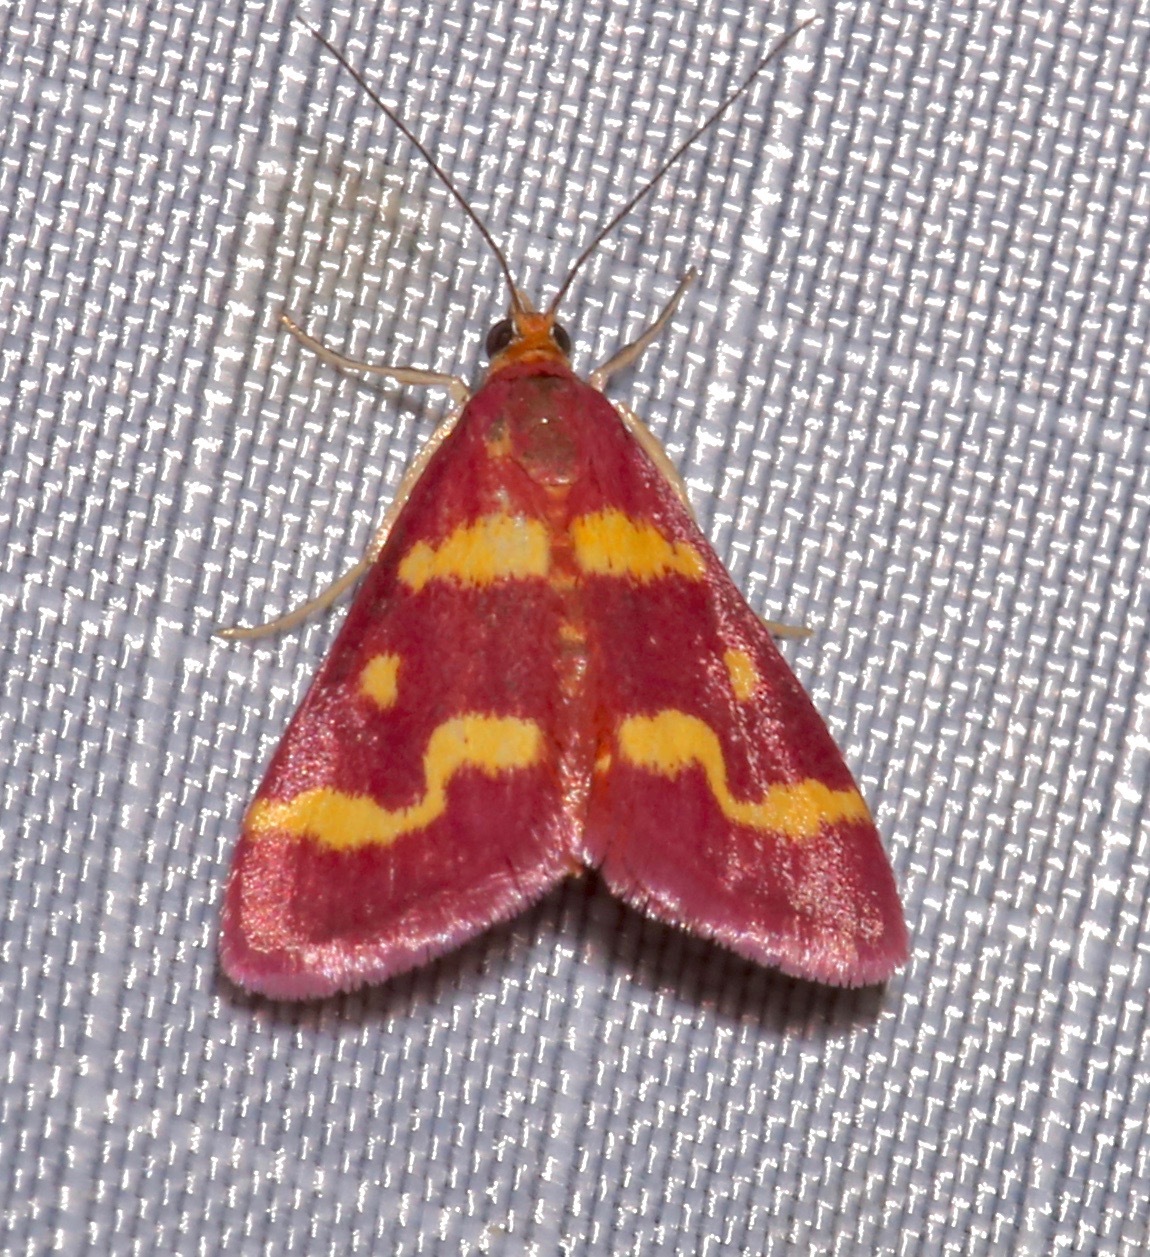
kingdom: Animalia
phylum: Arthropoda
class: Insecta
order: Lepidoptera
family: Crambidae
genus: Pyrausta
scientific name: Pyrausta tyralis
